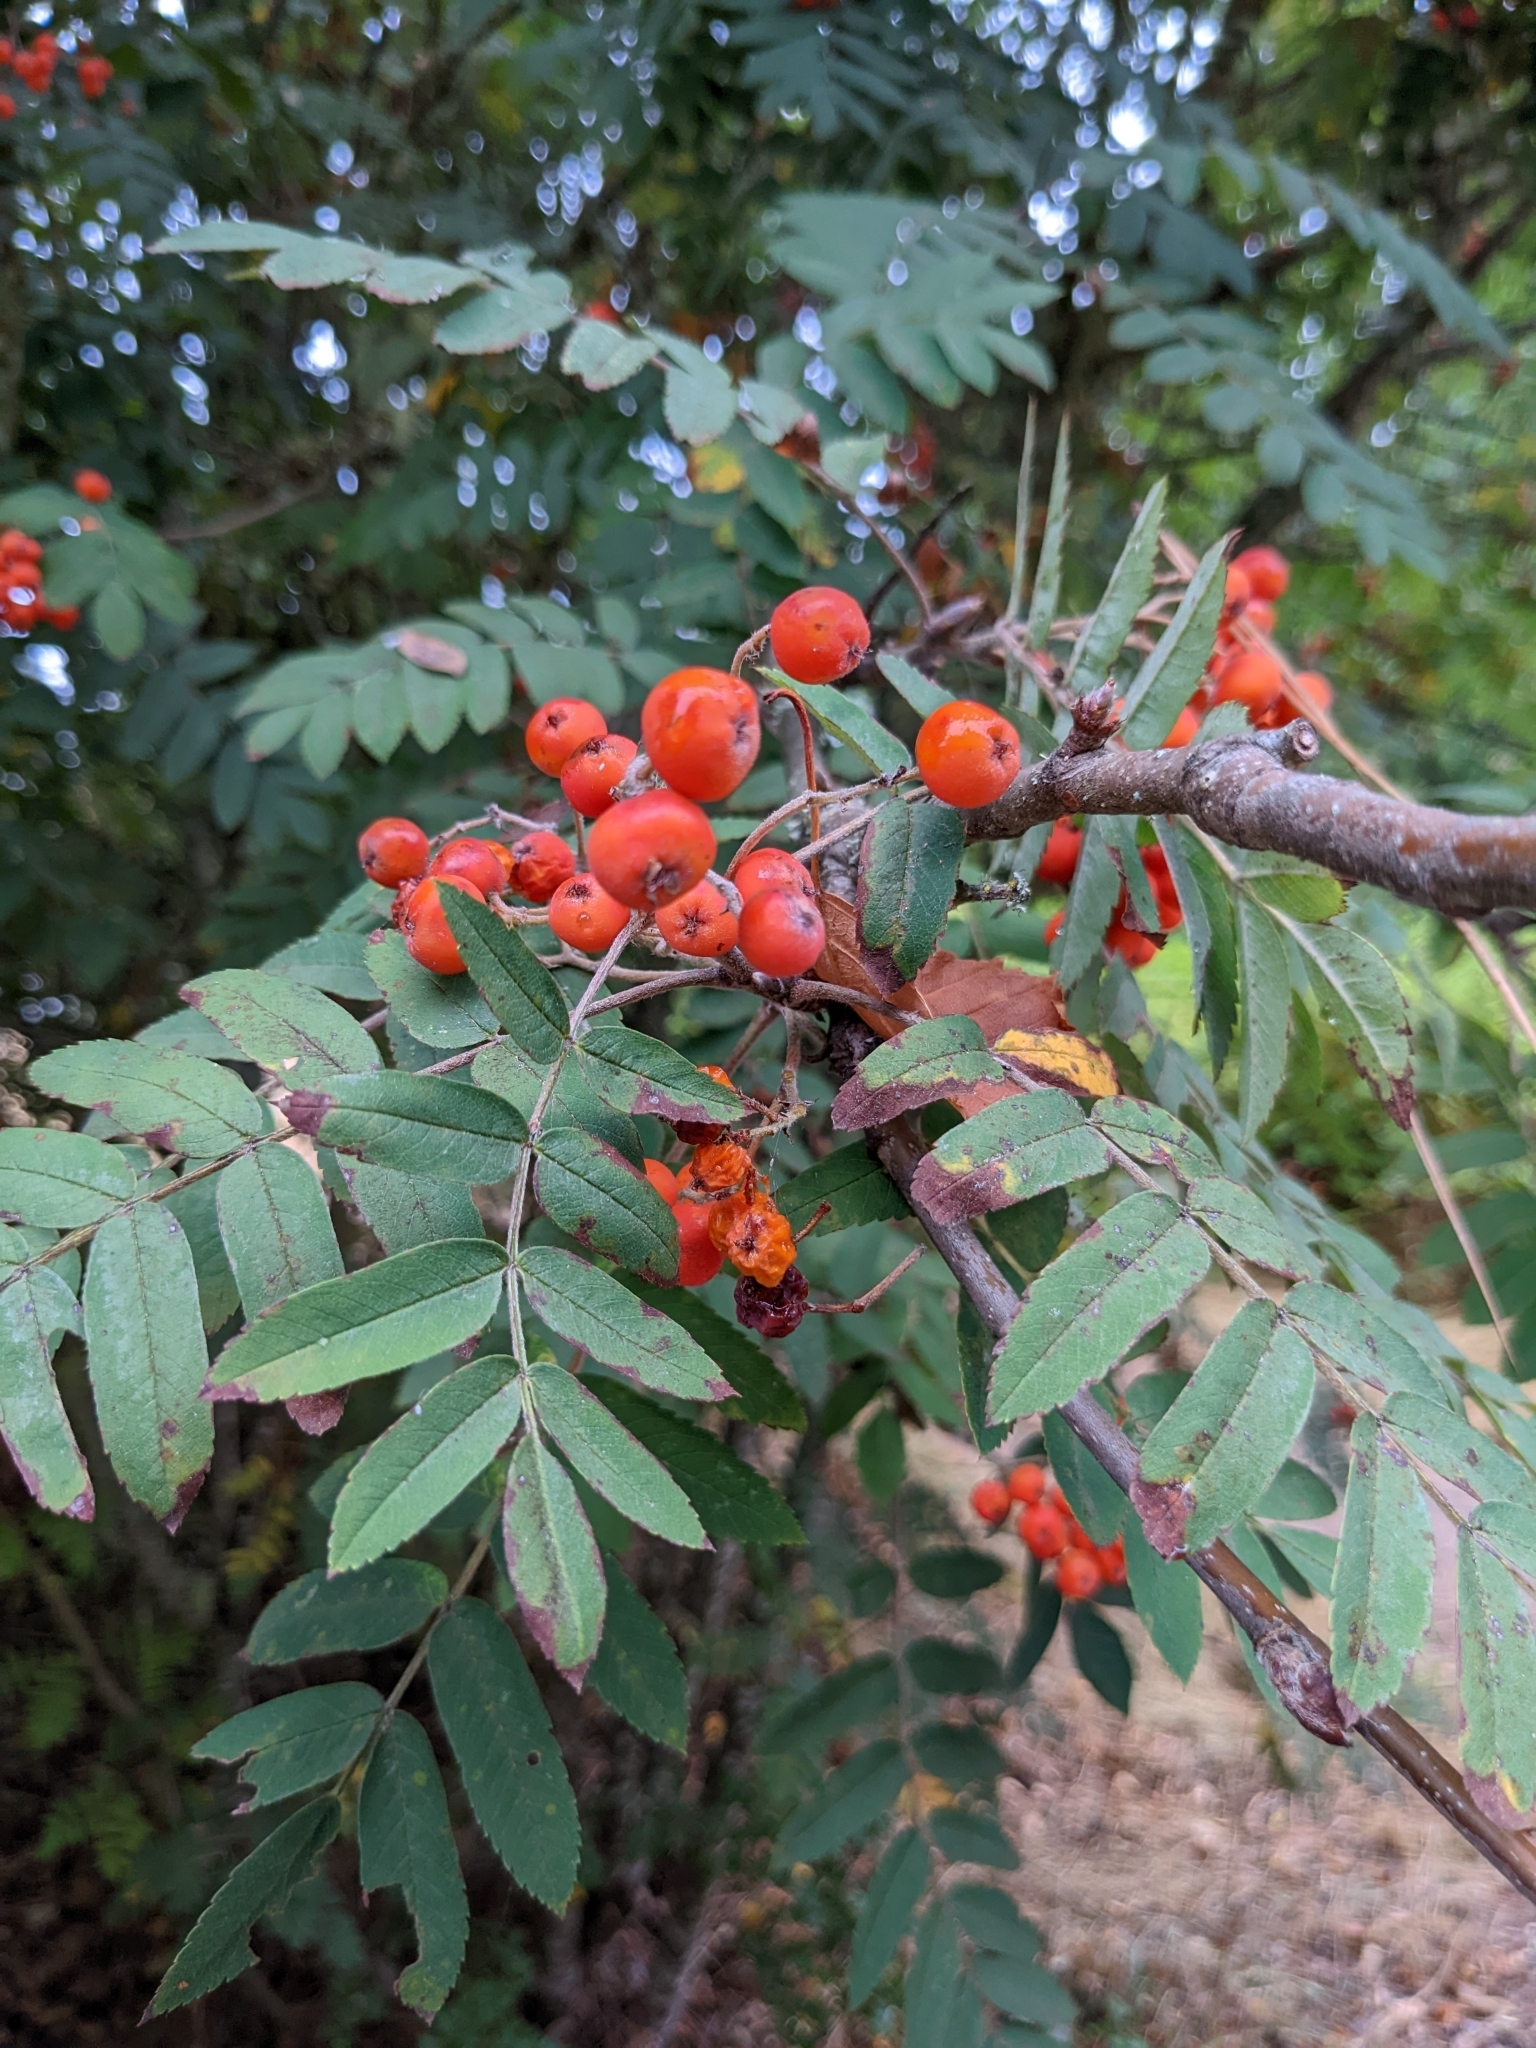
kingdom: Plantae
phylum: Tracheophyta
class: Magnoliopsida
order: Rosales
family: Rosaceae
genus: Sorbus
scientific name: Sorbus scopulina
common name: Greene's mountain-ash
